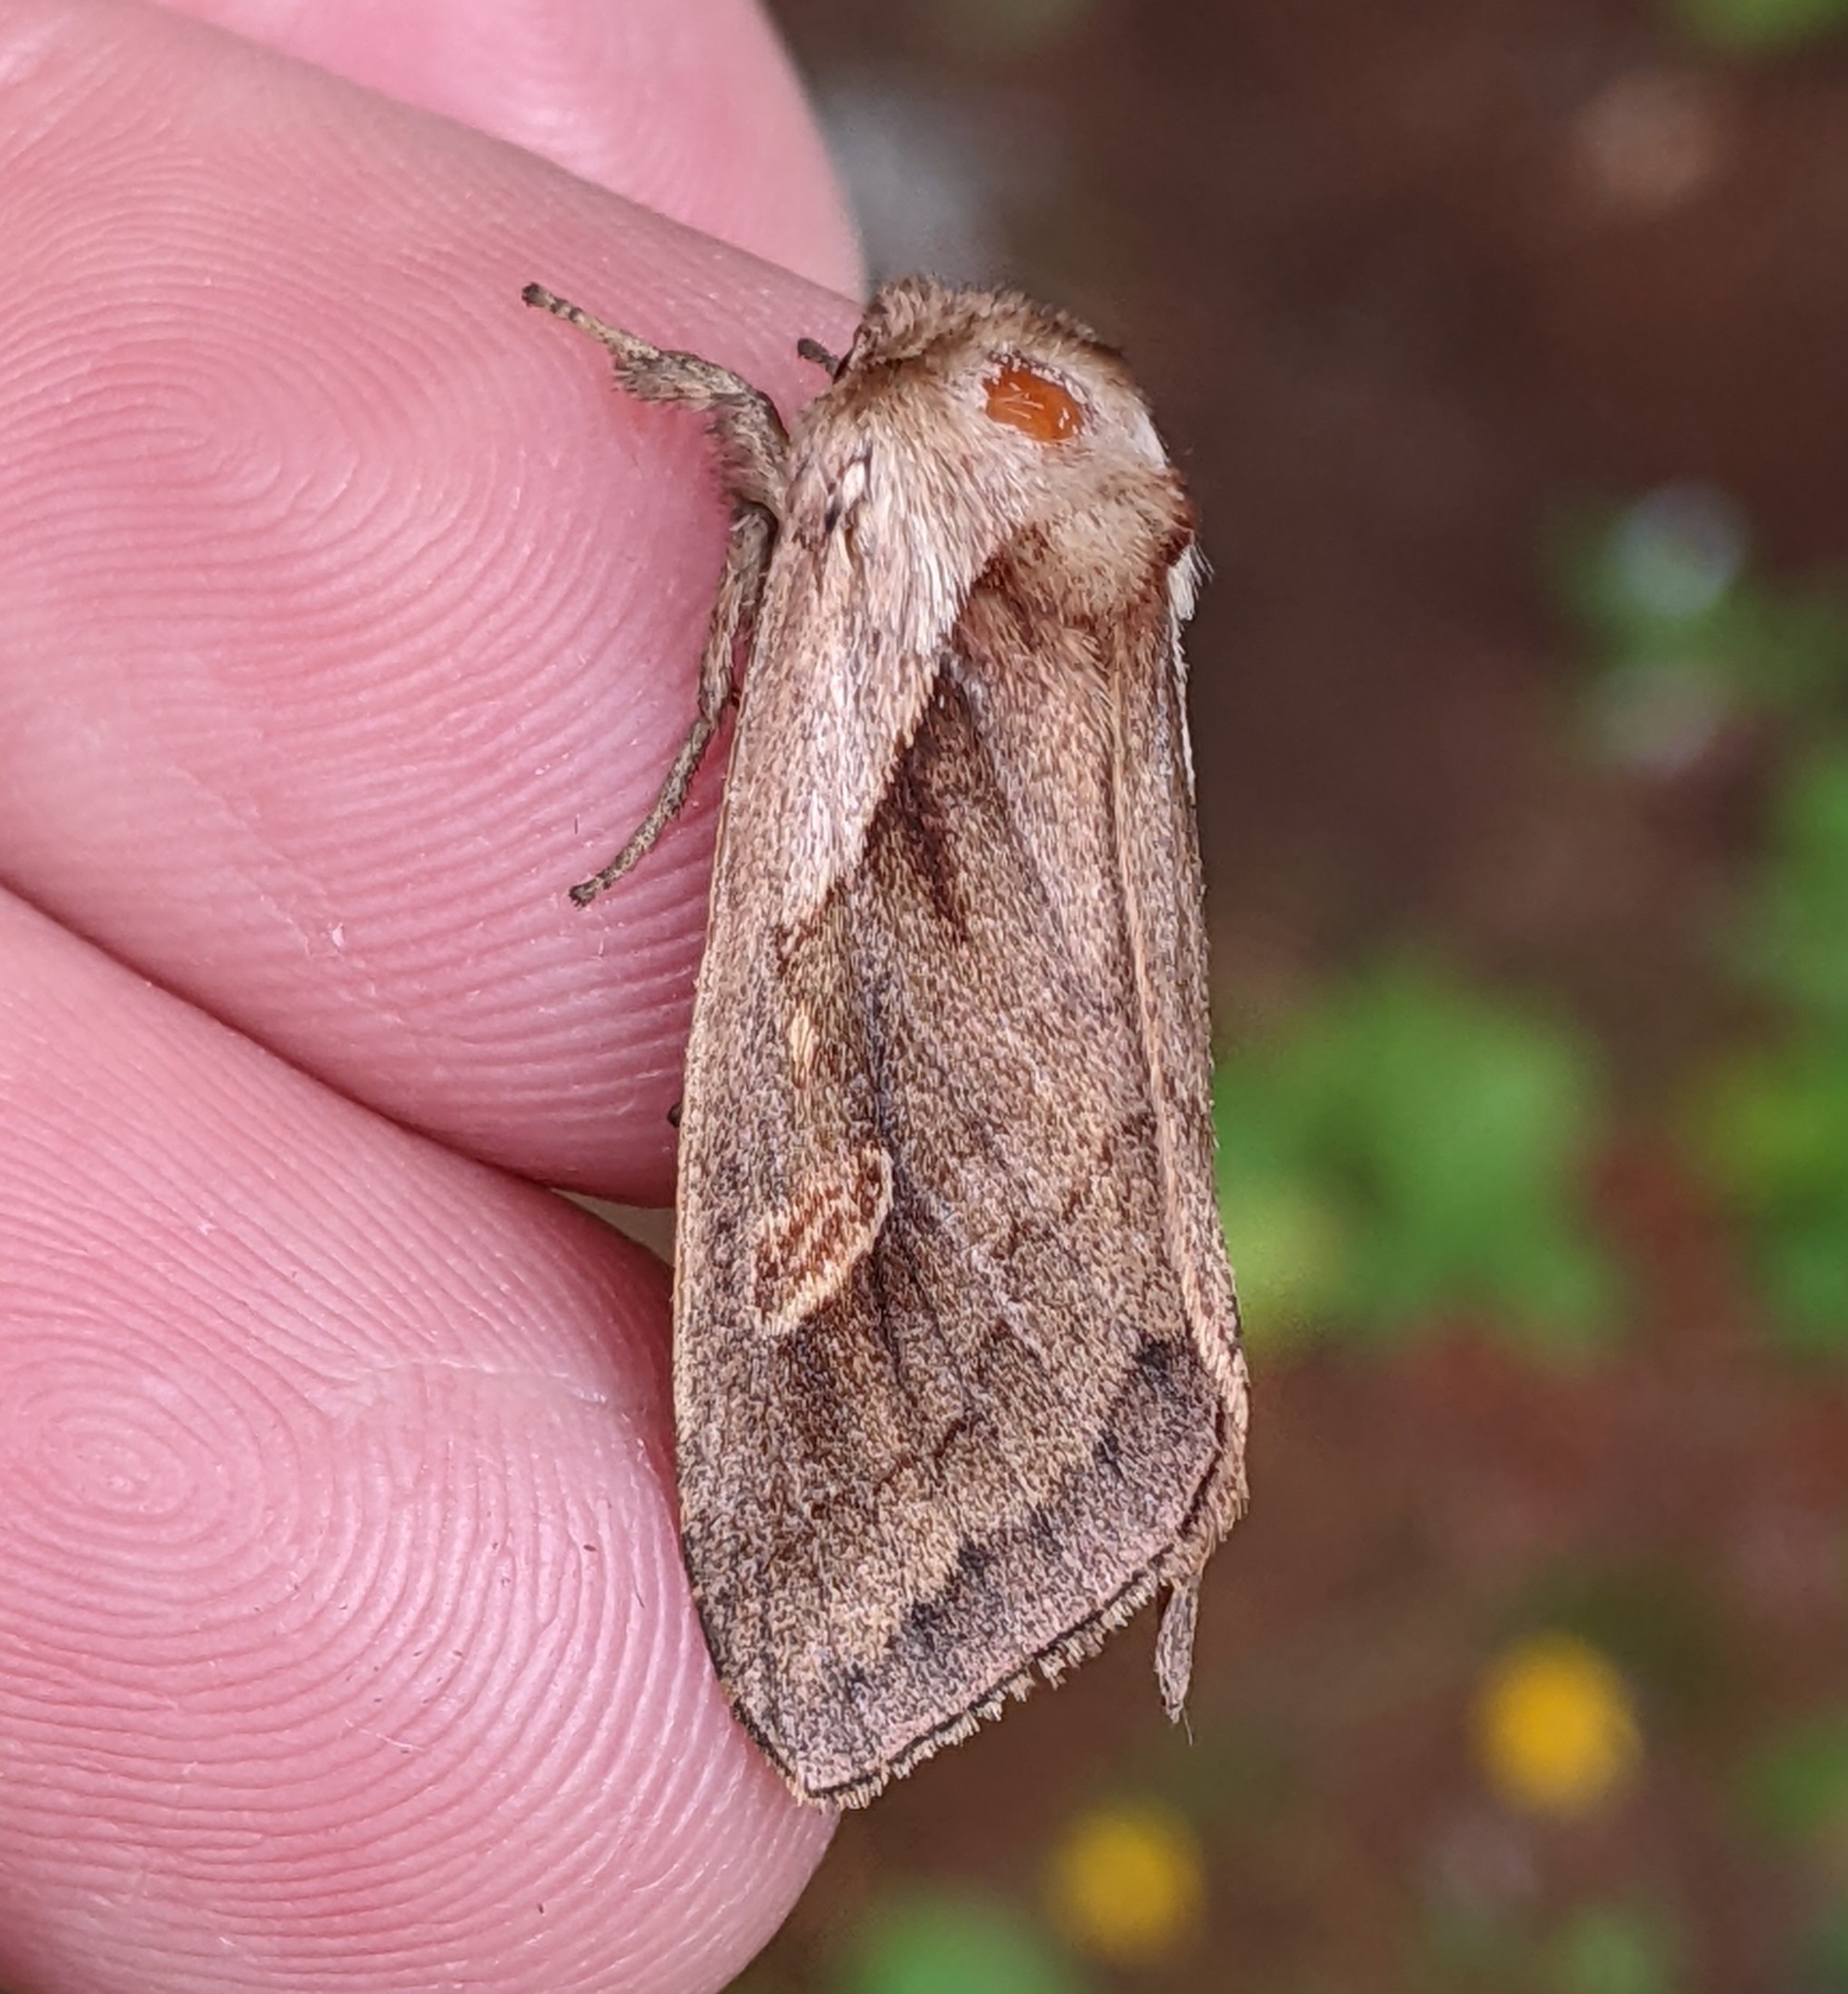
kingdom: Animalia
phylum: Arthropoda
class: Insecta
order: Lepidoptera
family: Noctuidae
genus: Bellura
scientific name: Bellura obliqua
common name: Cattail borer moth
